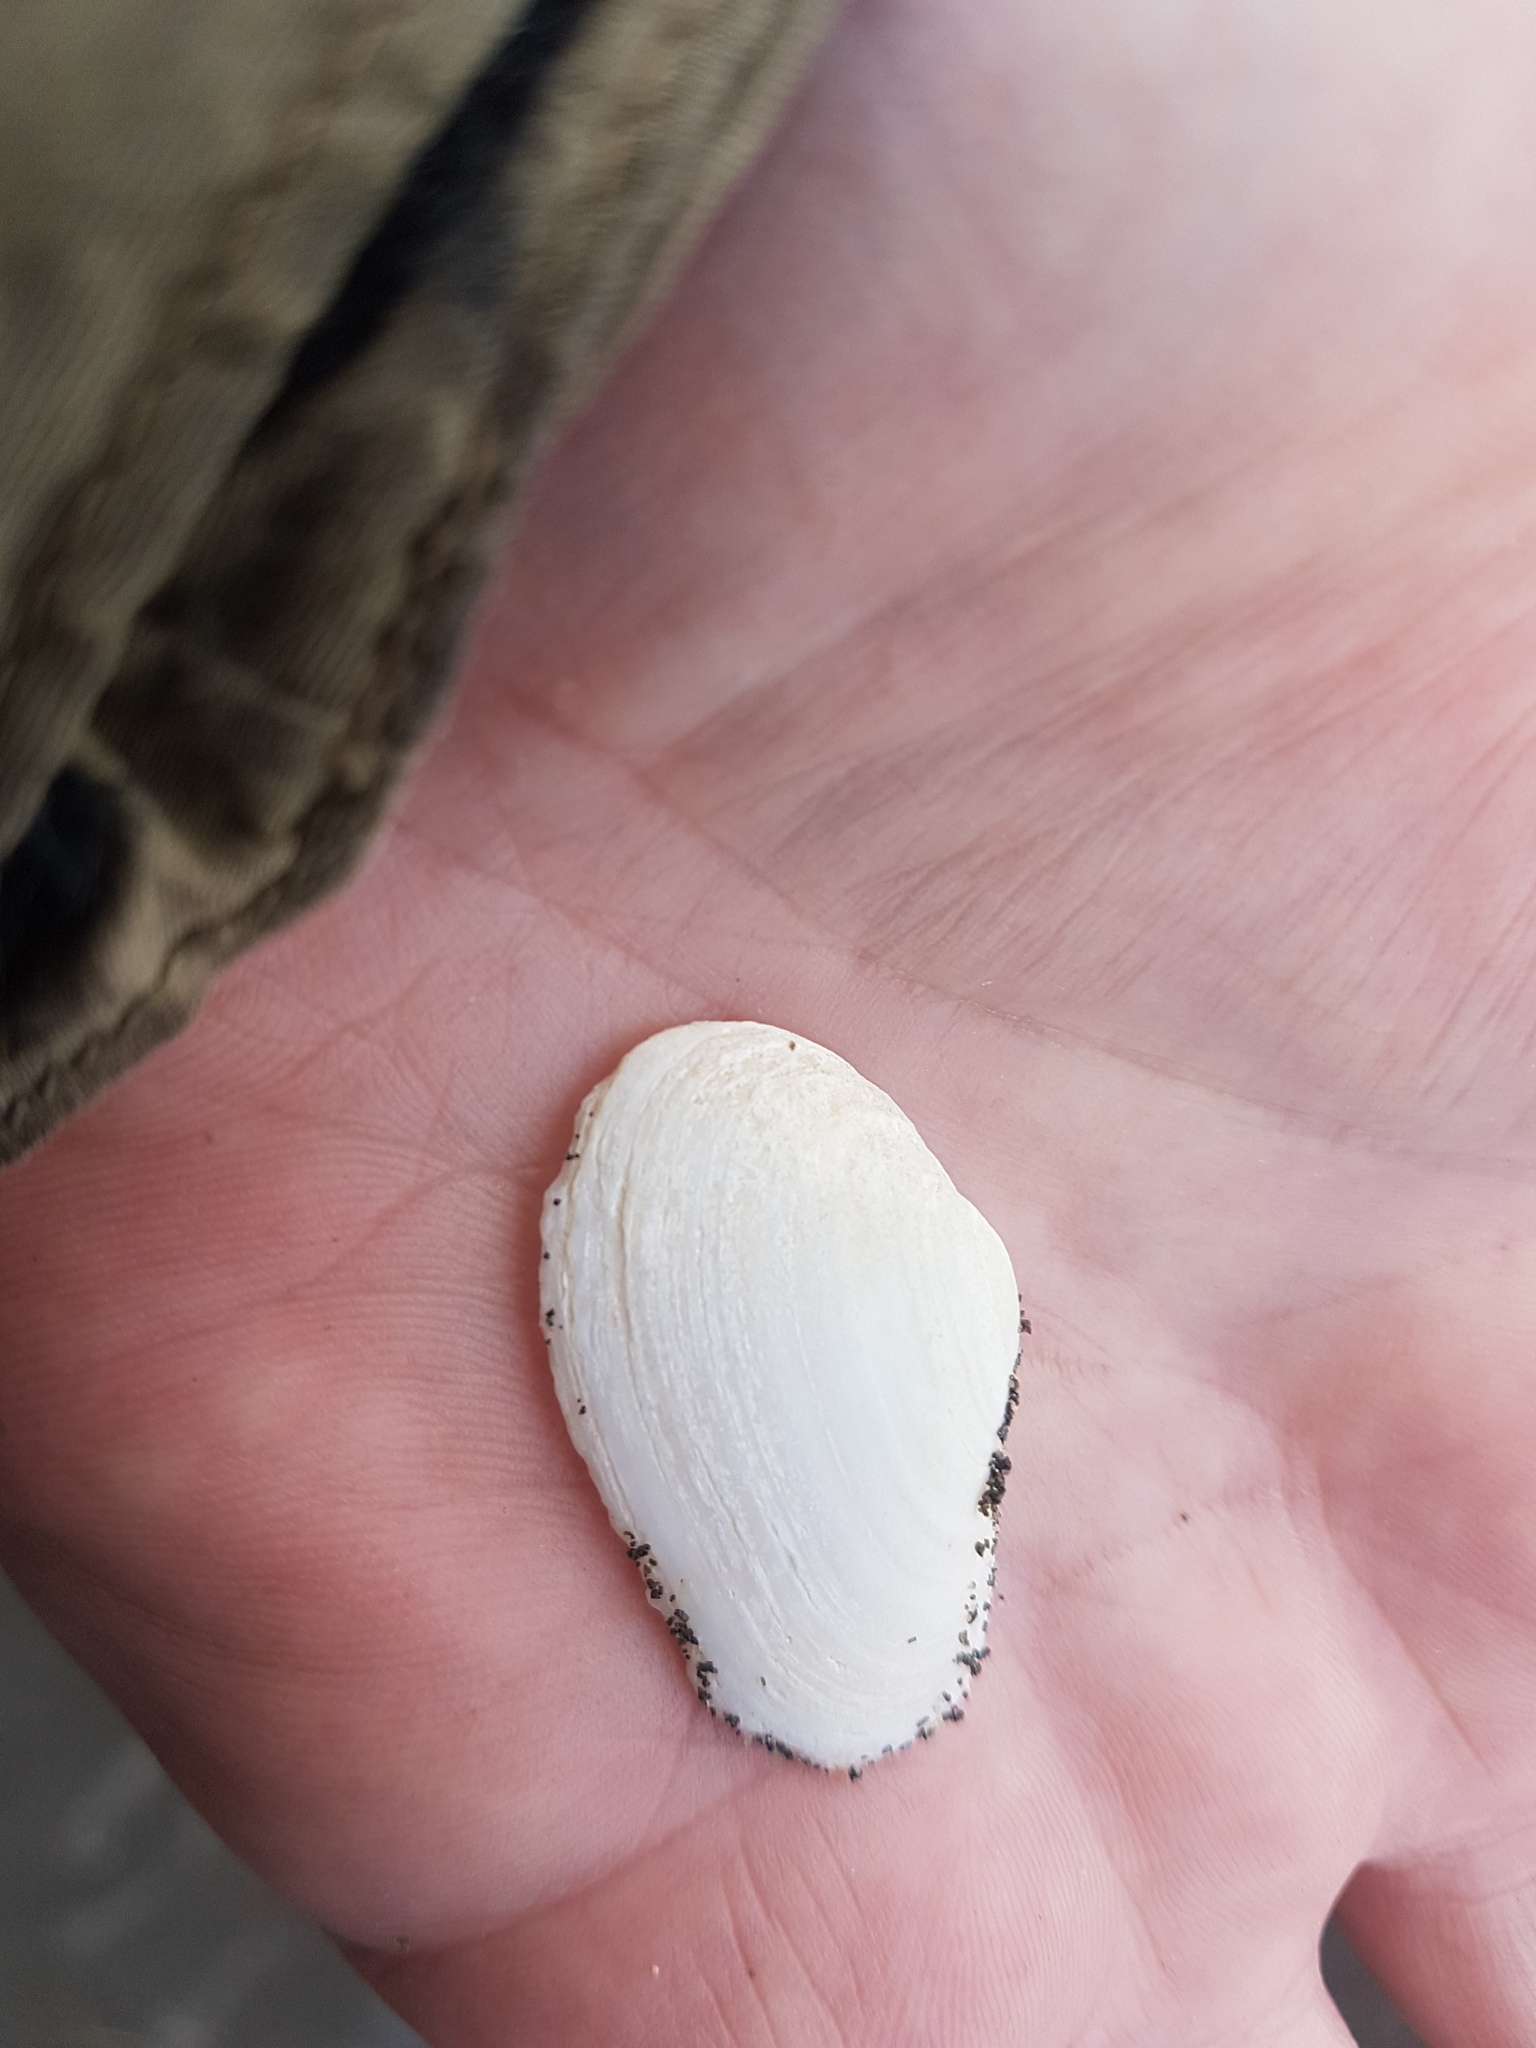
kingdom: Animalia
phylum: Mollusca
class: Bivalvia
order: Venerida
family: Mesodesmatidae
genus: Paphies
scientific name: Paphies australis
